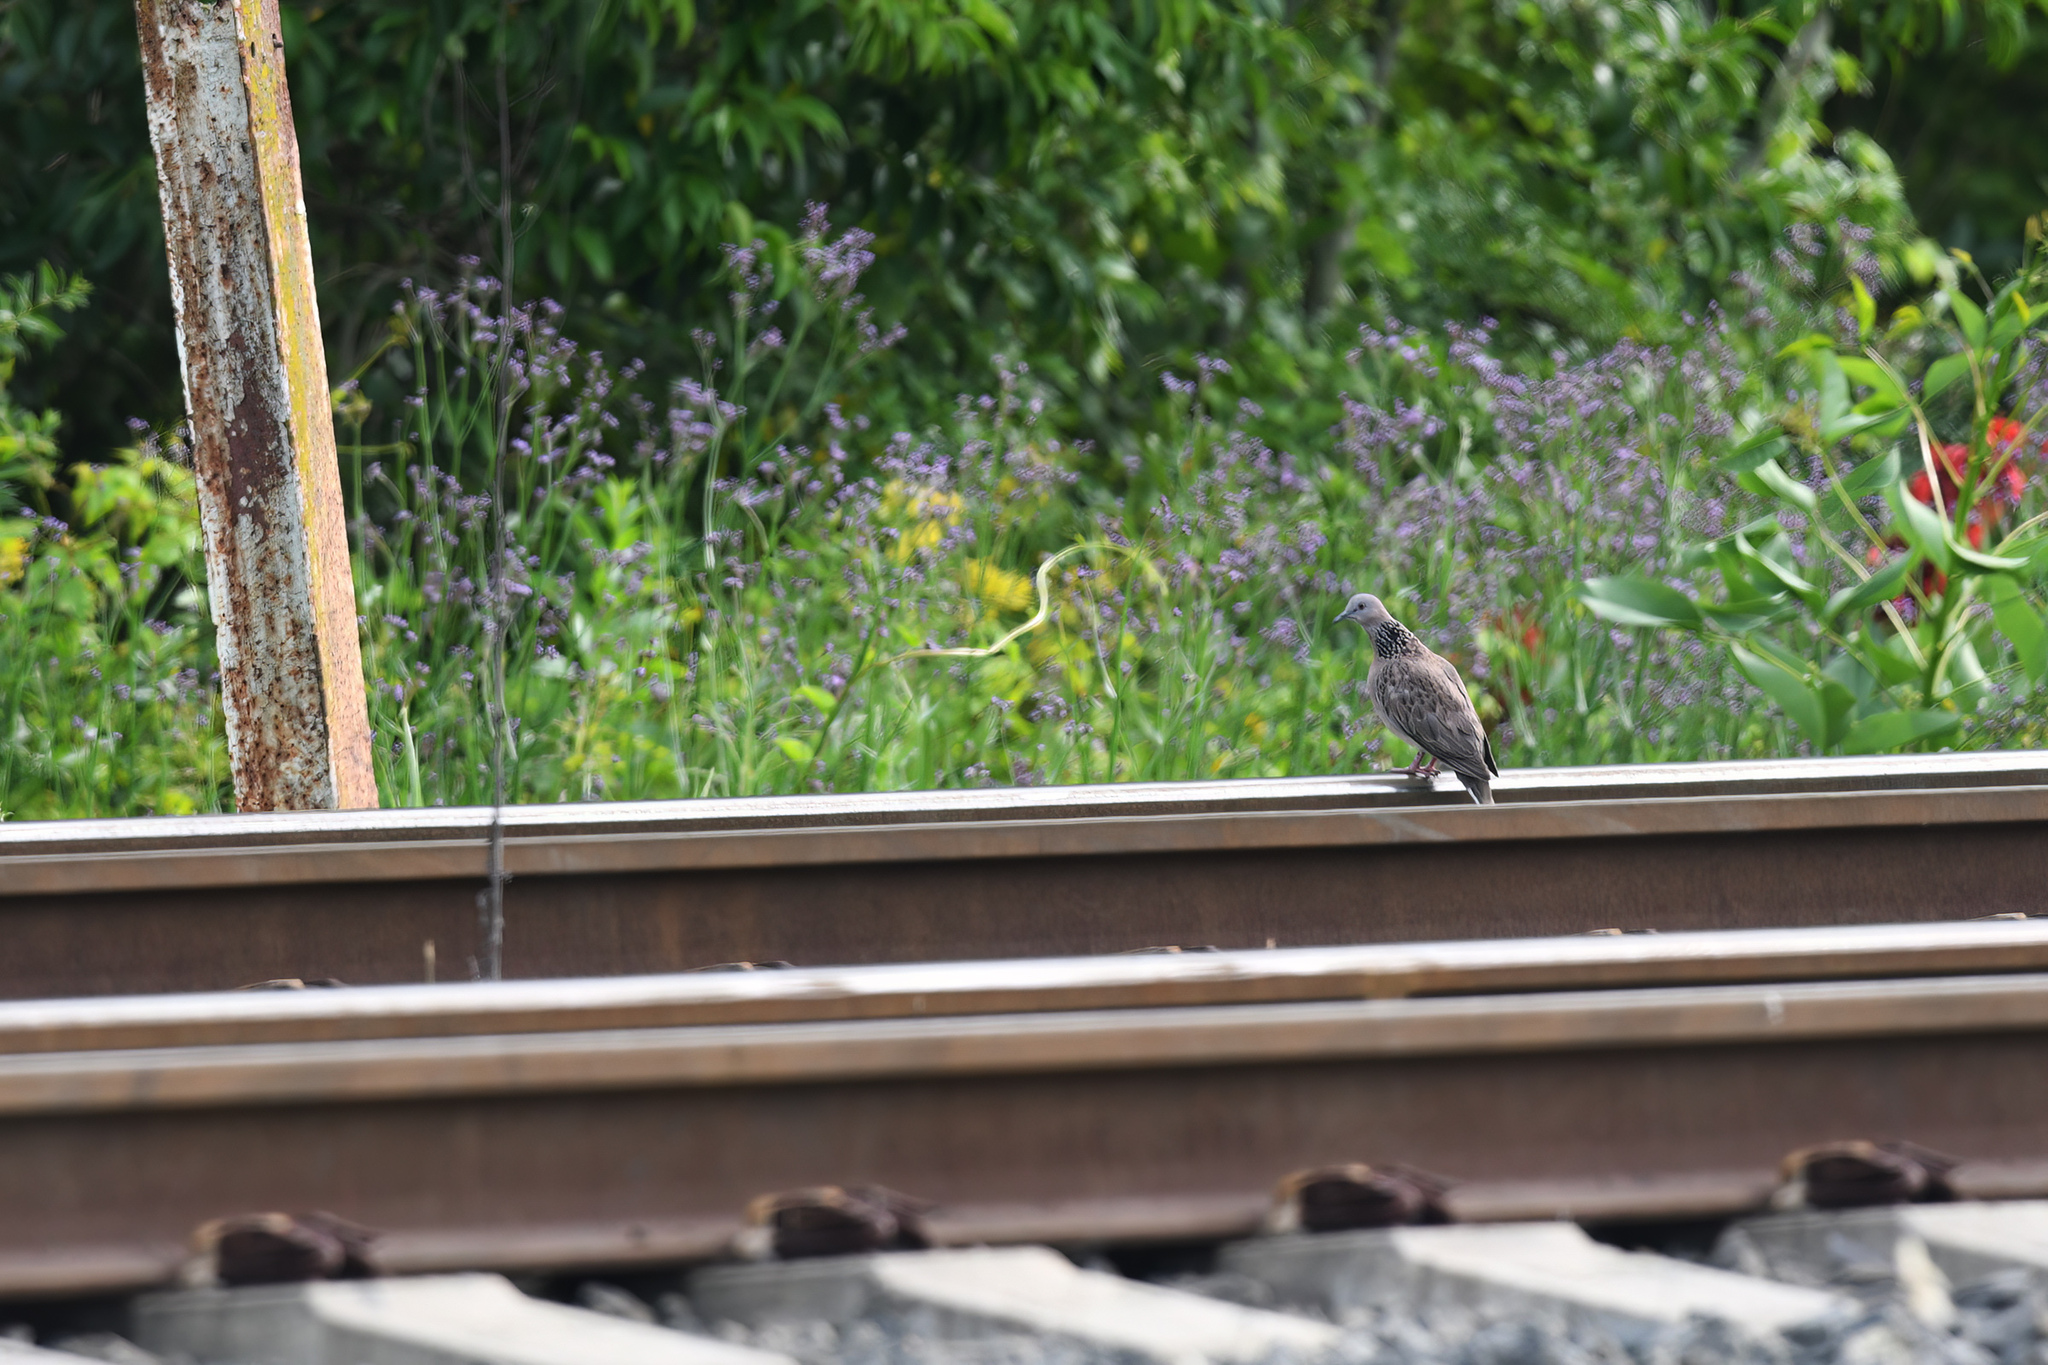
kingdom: Animalia
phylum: Chordata
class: Aves
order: Columbiformes
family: Columbidae
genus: Spilopelia
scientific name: Spilopelia chinensis
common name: Spotted dove
